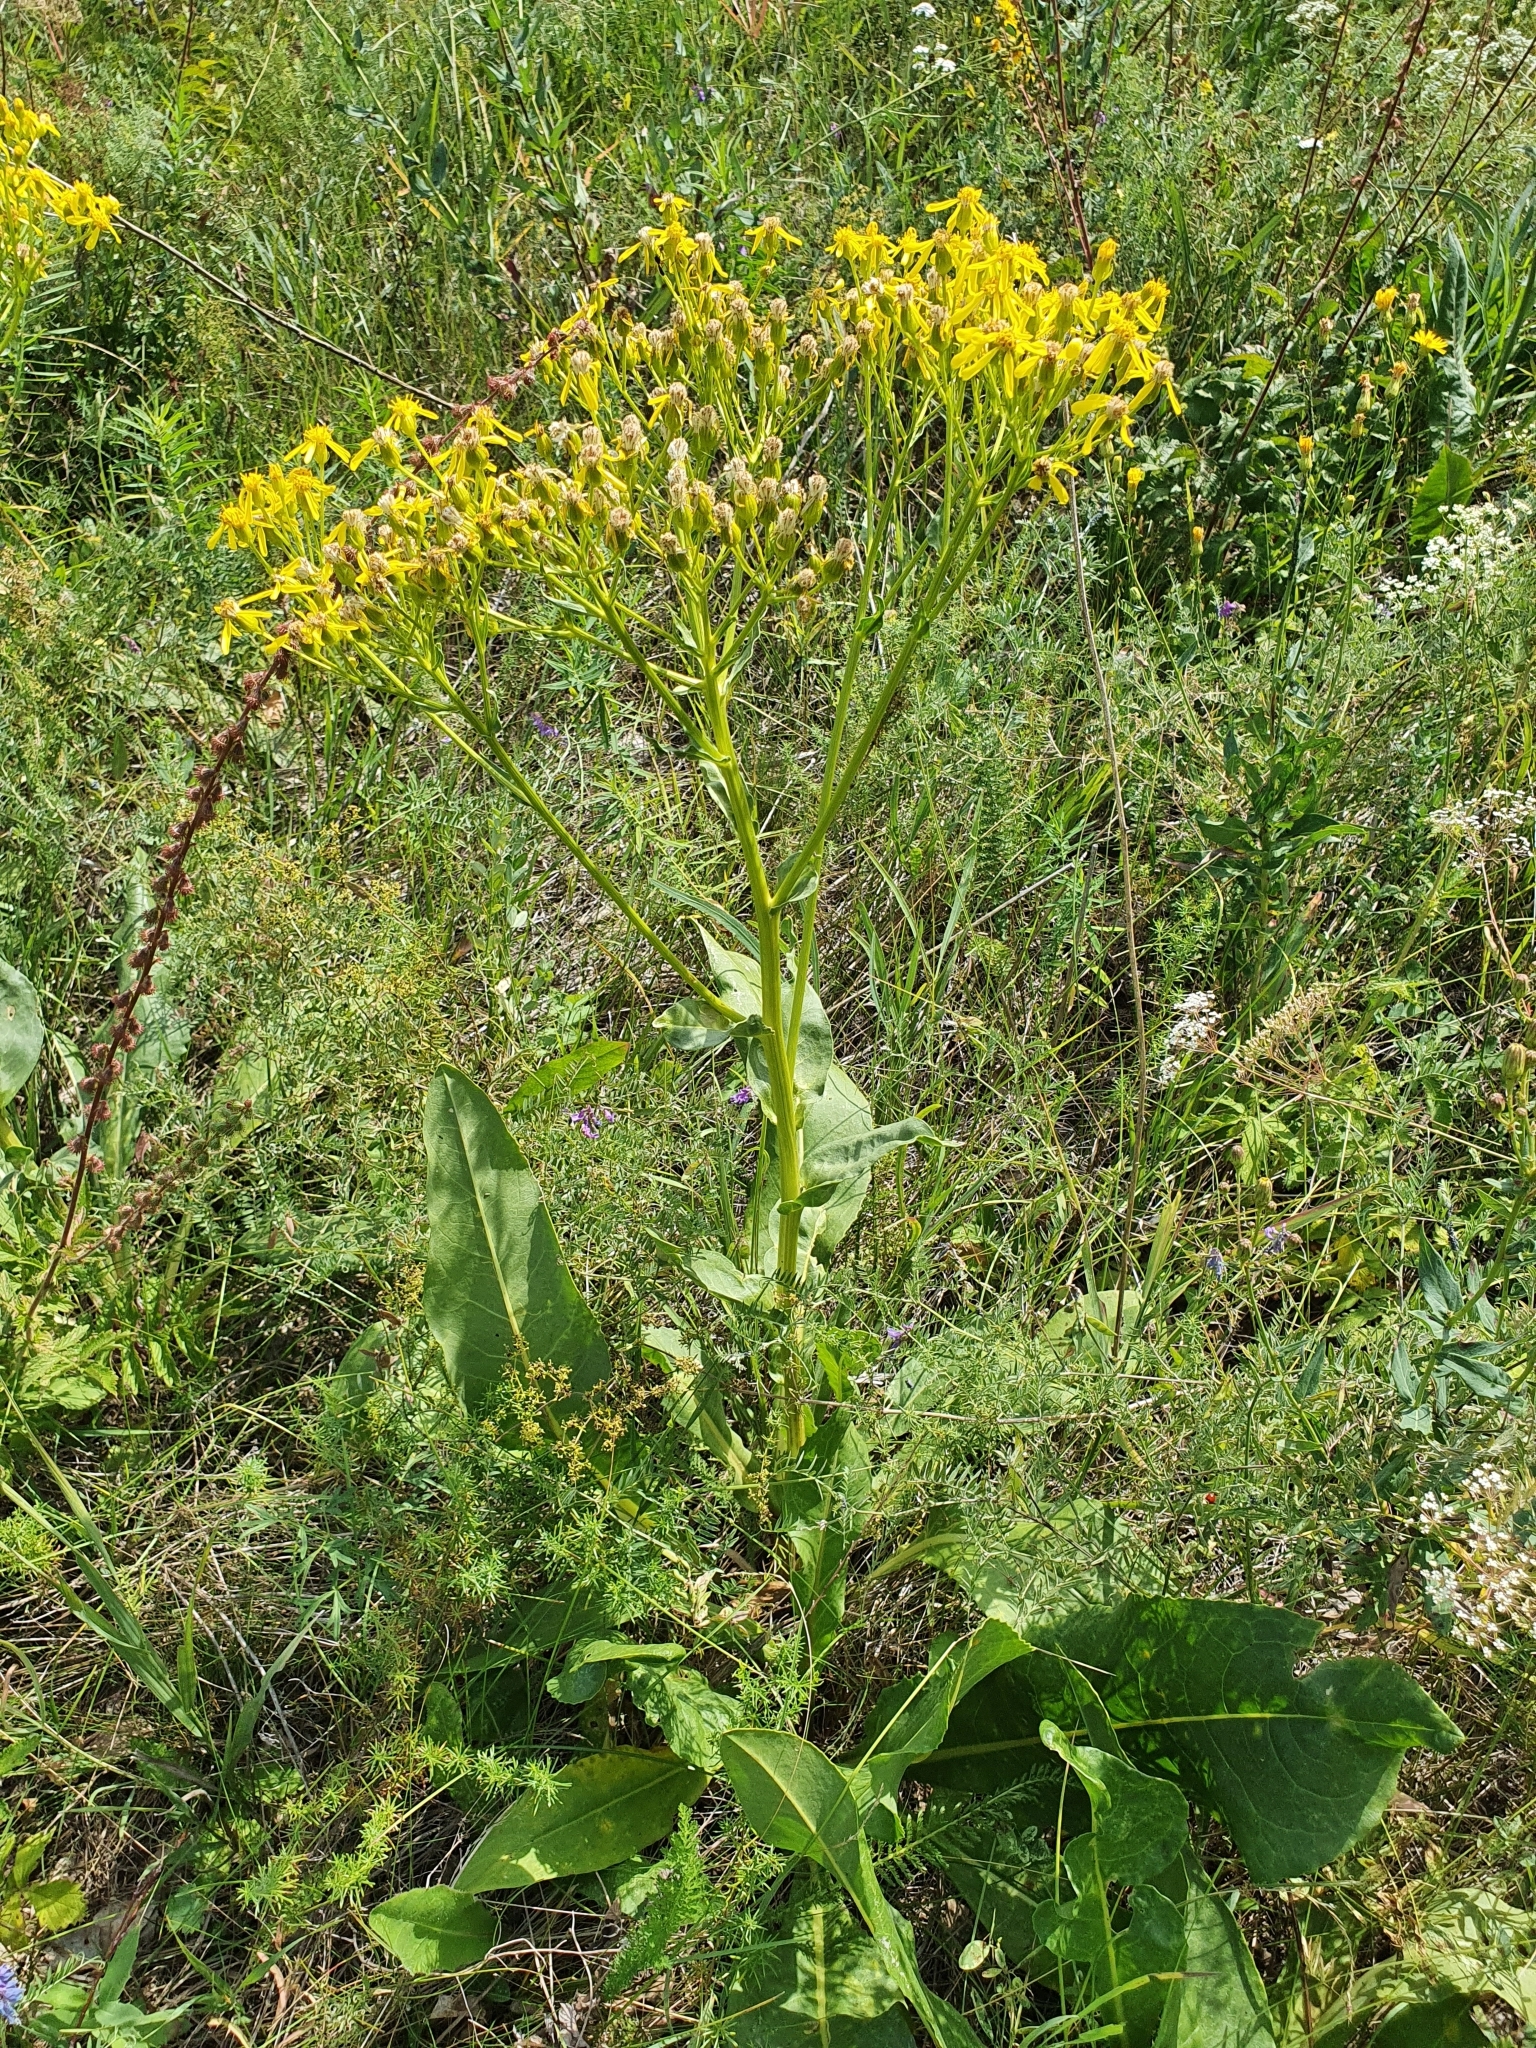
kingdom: Plantae
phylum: Tracheophyta
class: Magnoliopsida
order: Asterales
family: Asteraceae
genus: Senecio
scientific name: Senecio doria
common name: Golden ragwort
